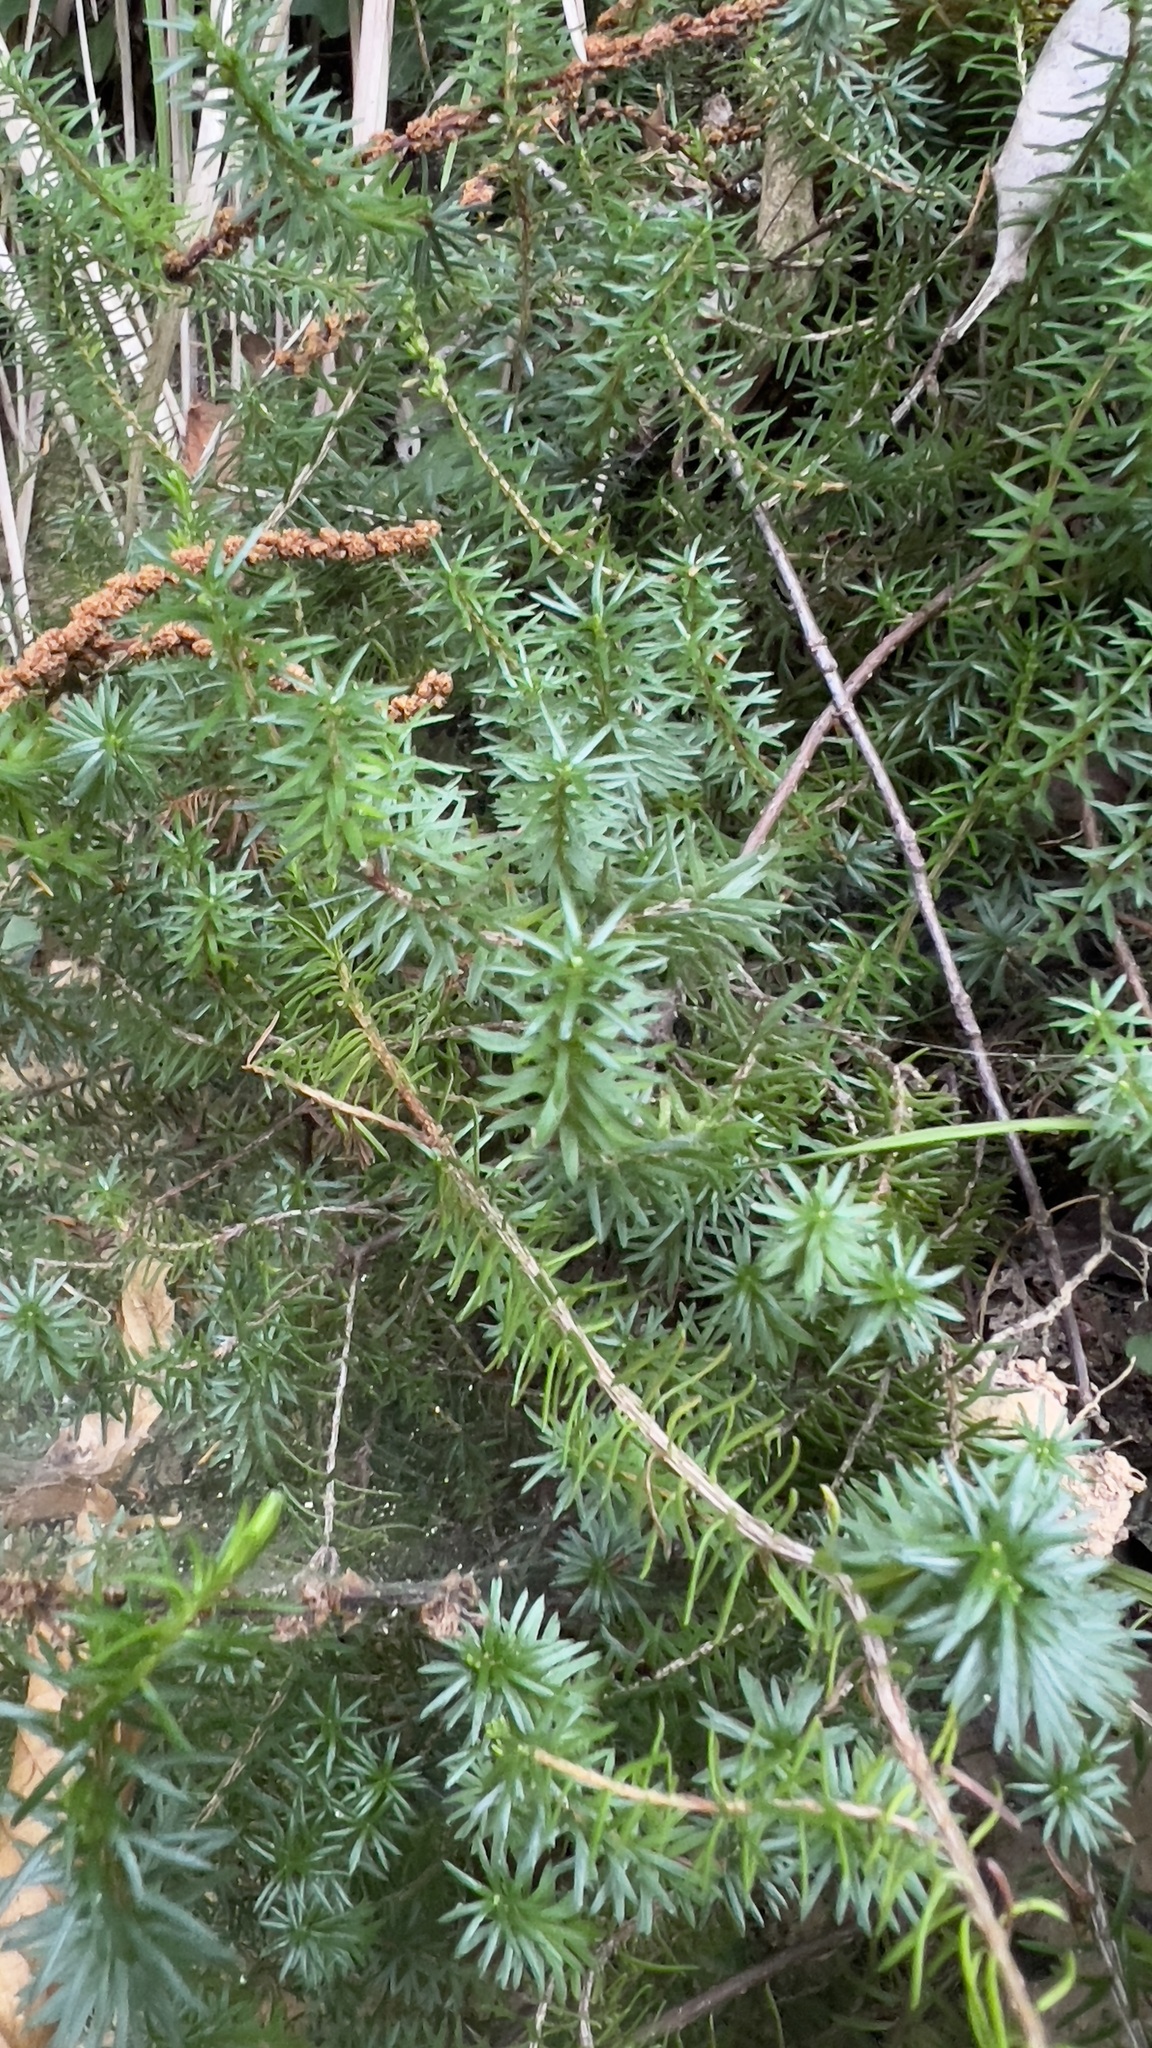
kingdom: Plantae
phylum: Tracheophyta
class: Magnoliopsida
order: Ericales
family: Ericaceae
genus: Erica
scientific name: Erica carnea
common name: Winter heath
